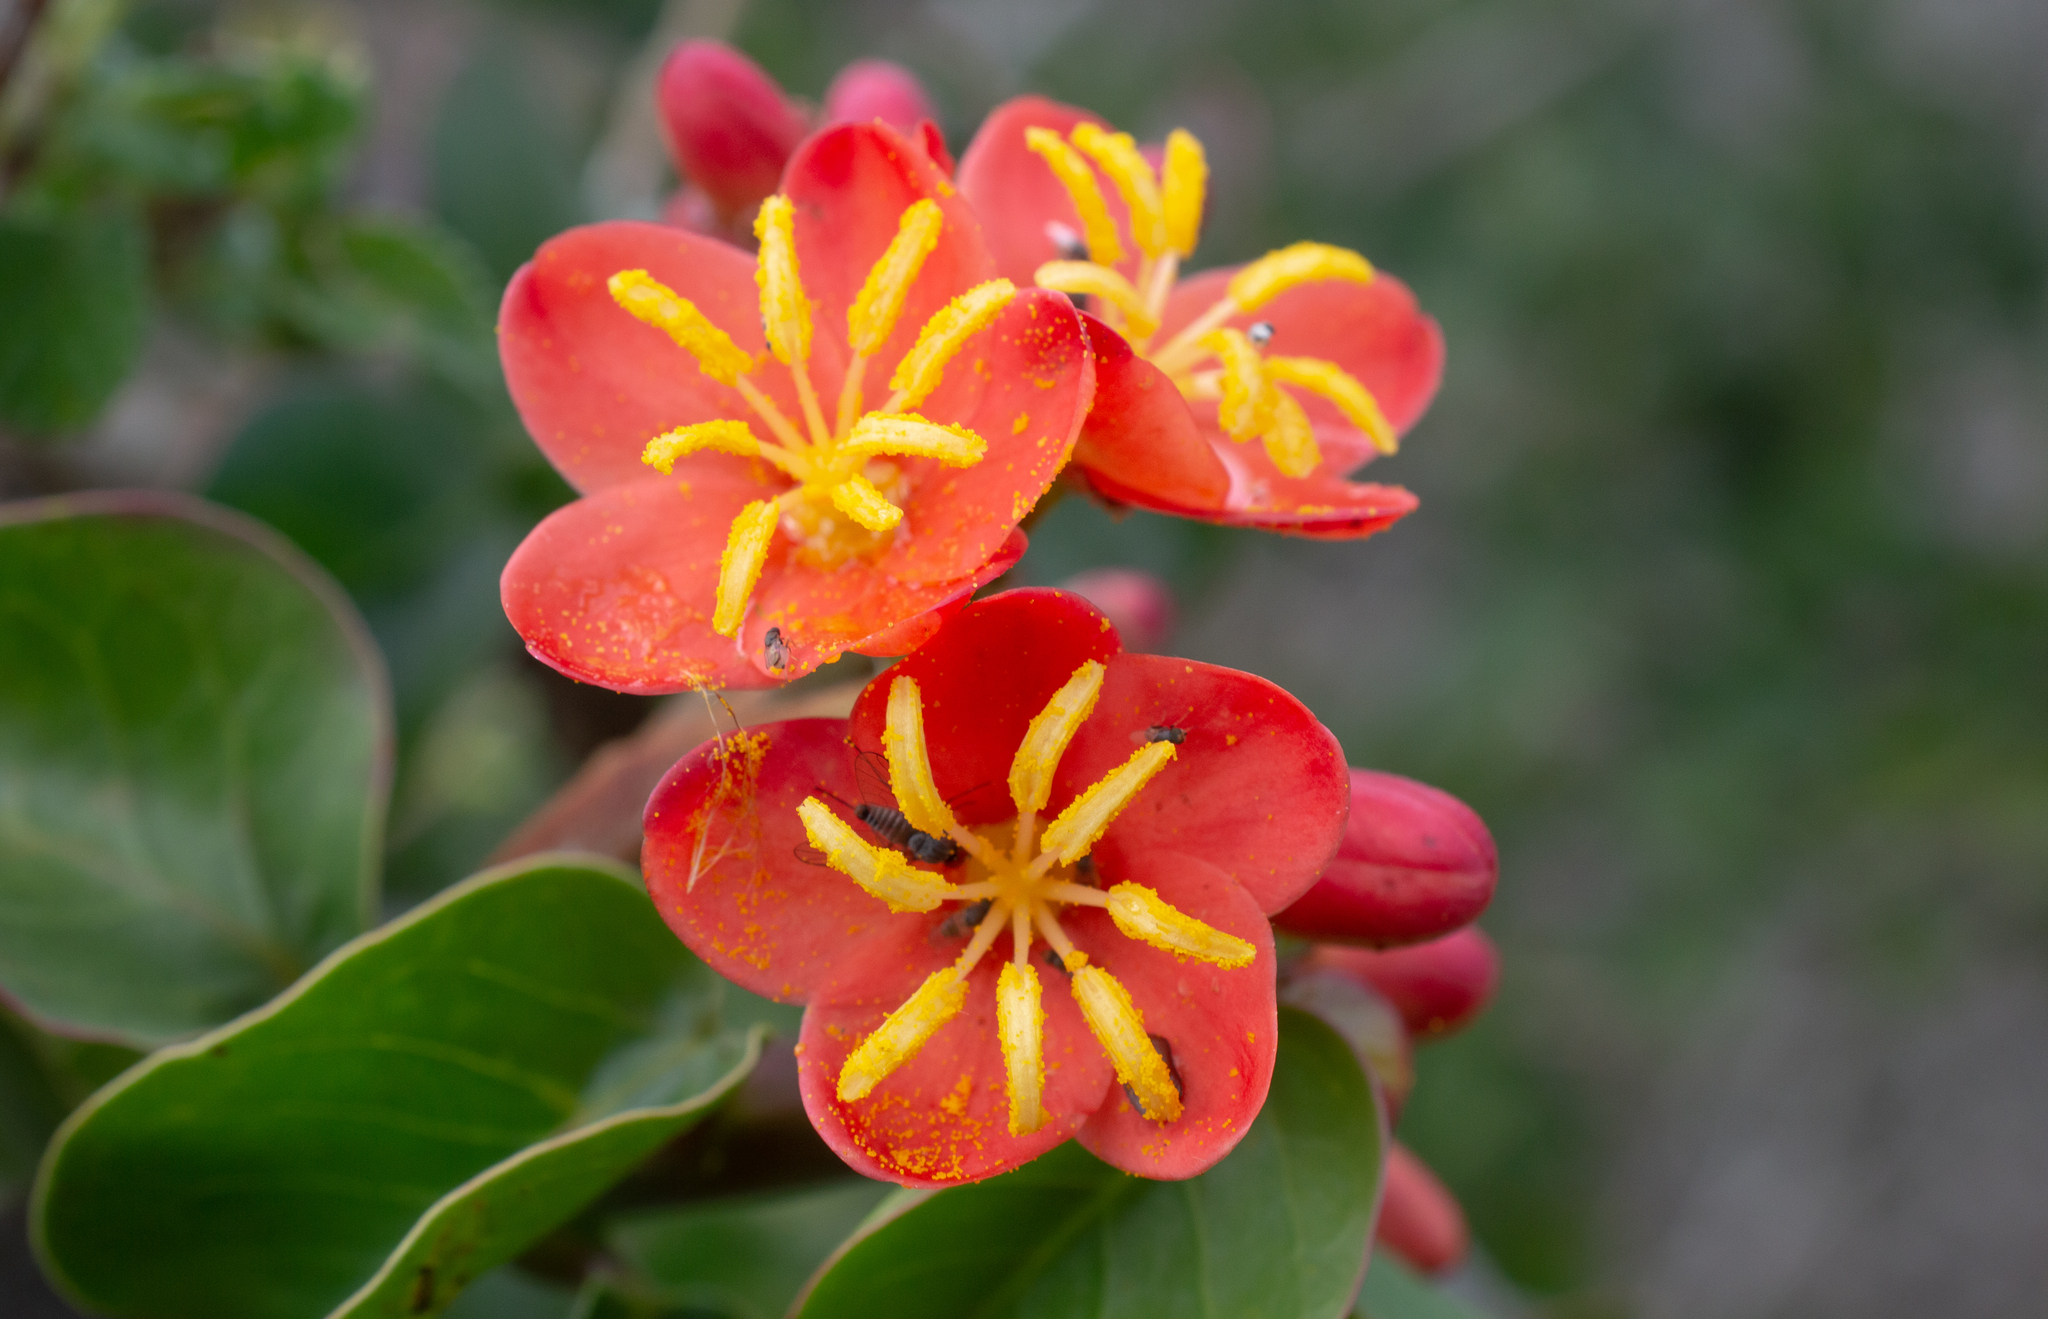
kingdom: Plantae
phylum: Tracheophyta
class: Magnoliopsida
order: Malpighiales
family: Euphorbiaceae
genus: Jatropha
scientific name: Jatropha mutabilis
